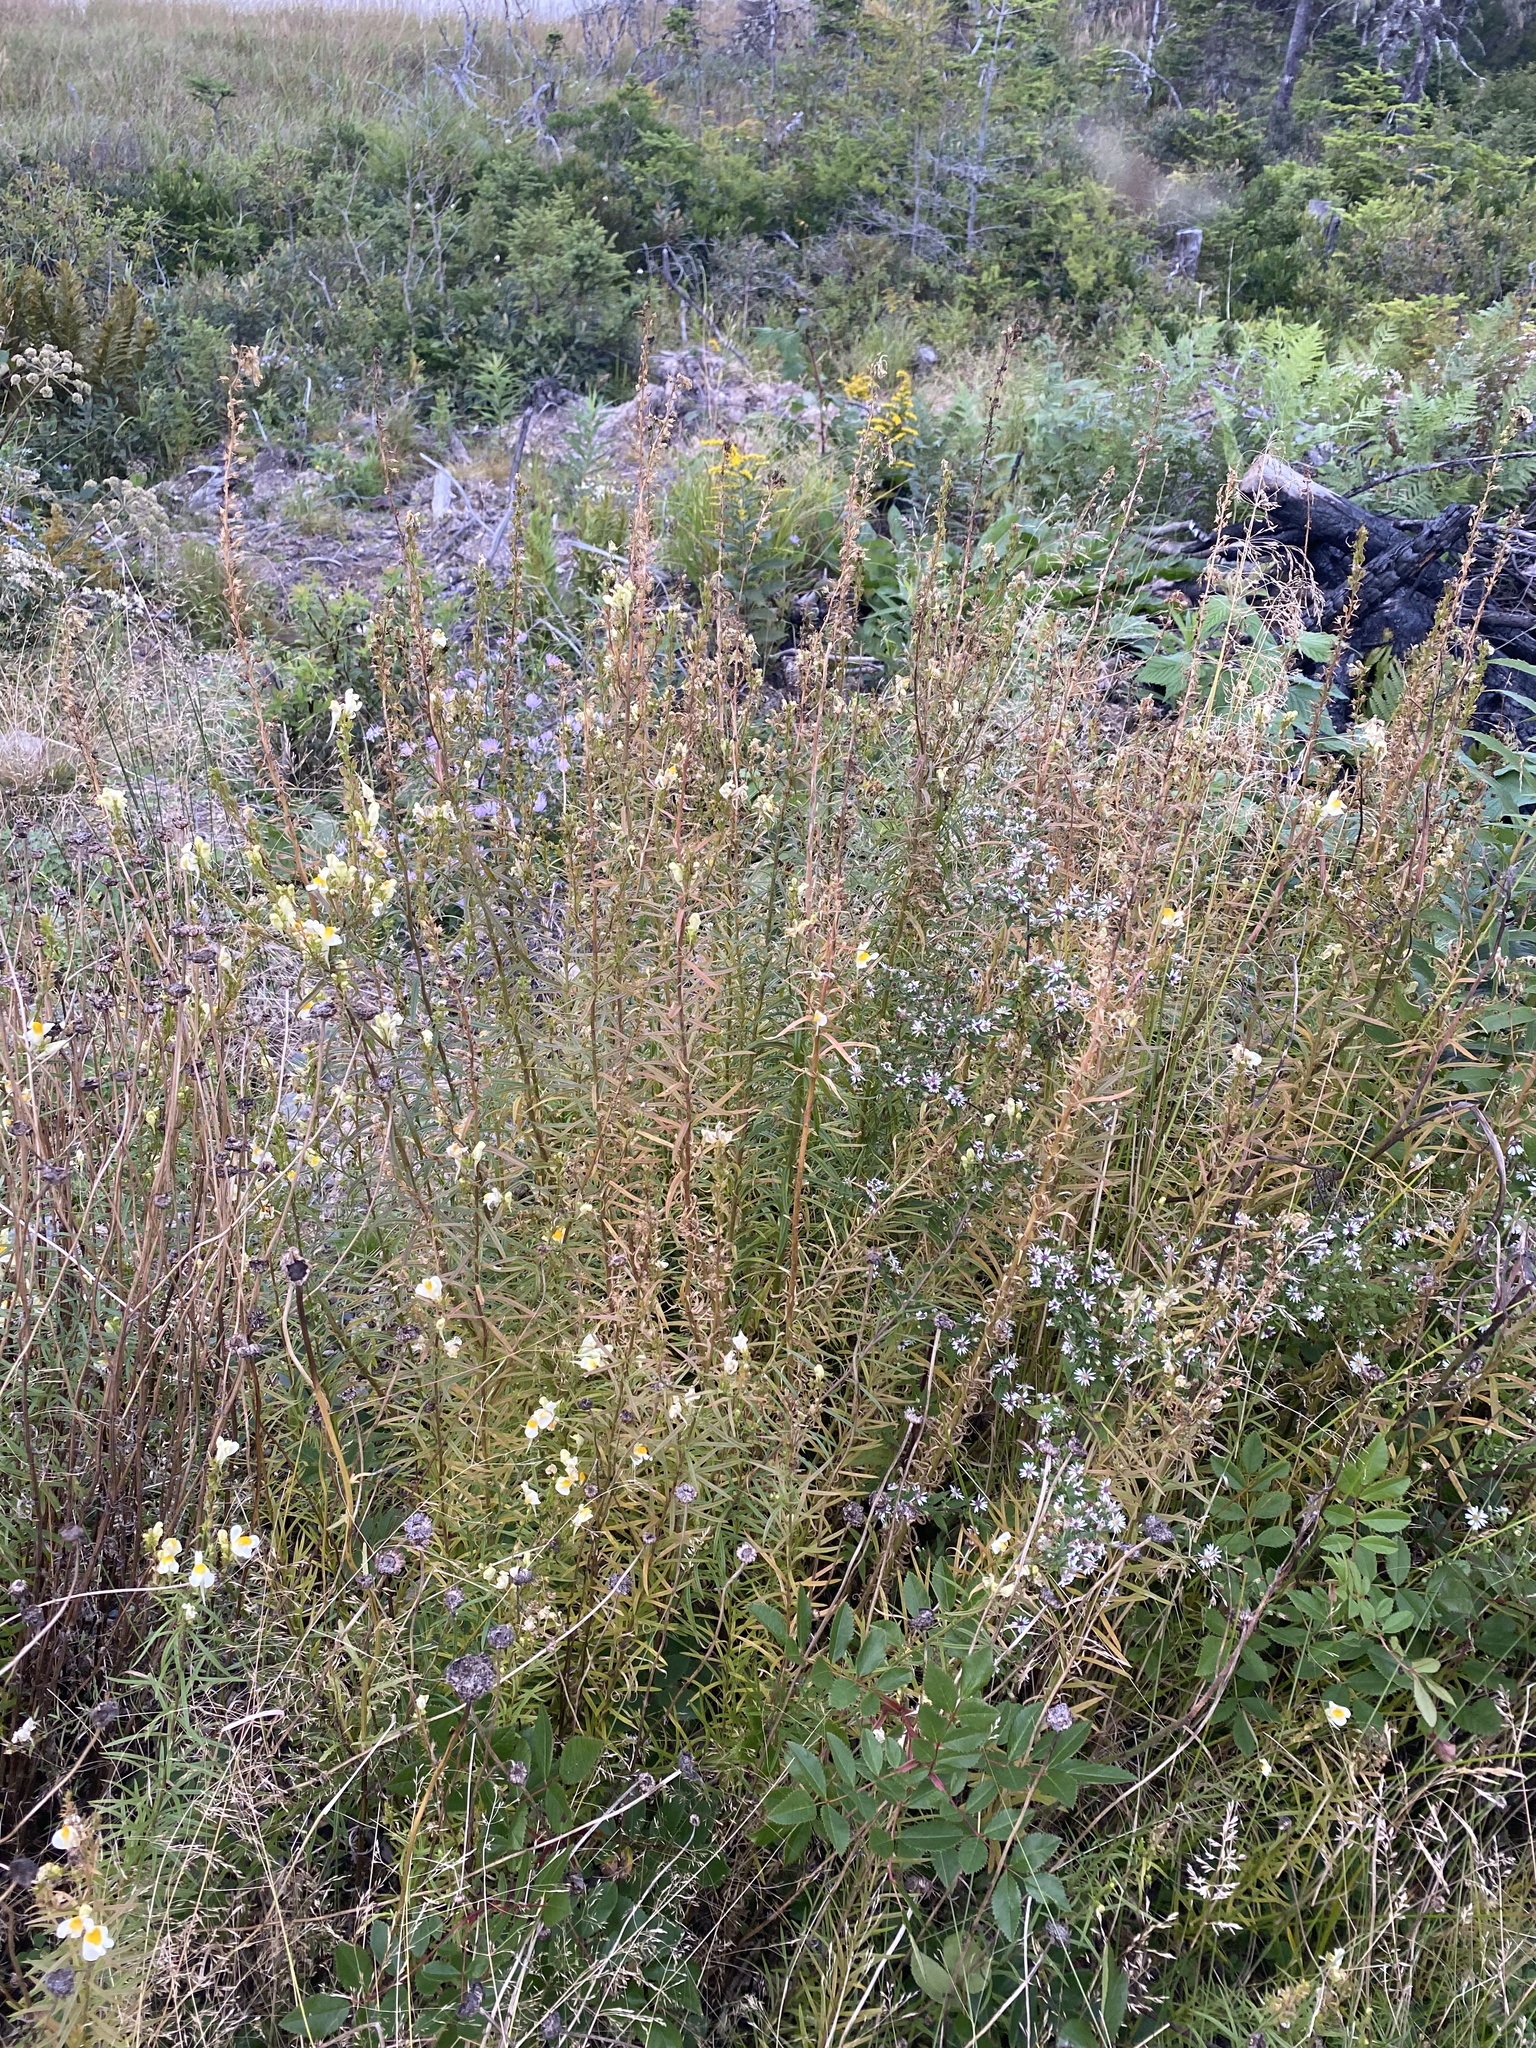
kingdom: Plantae
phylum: Tracheophyta
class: Magnoliopsida
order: Lamiales
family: Plantaginaceae
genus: Linaria
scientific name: Linaria vulgaris
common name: Butter and eggs
